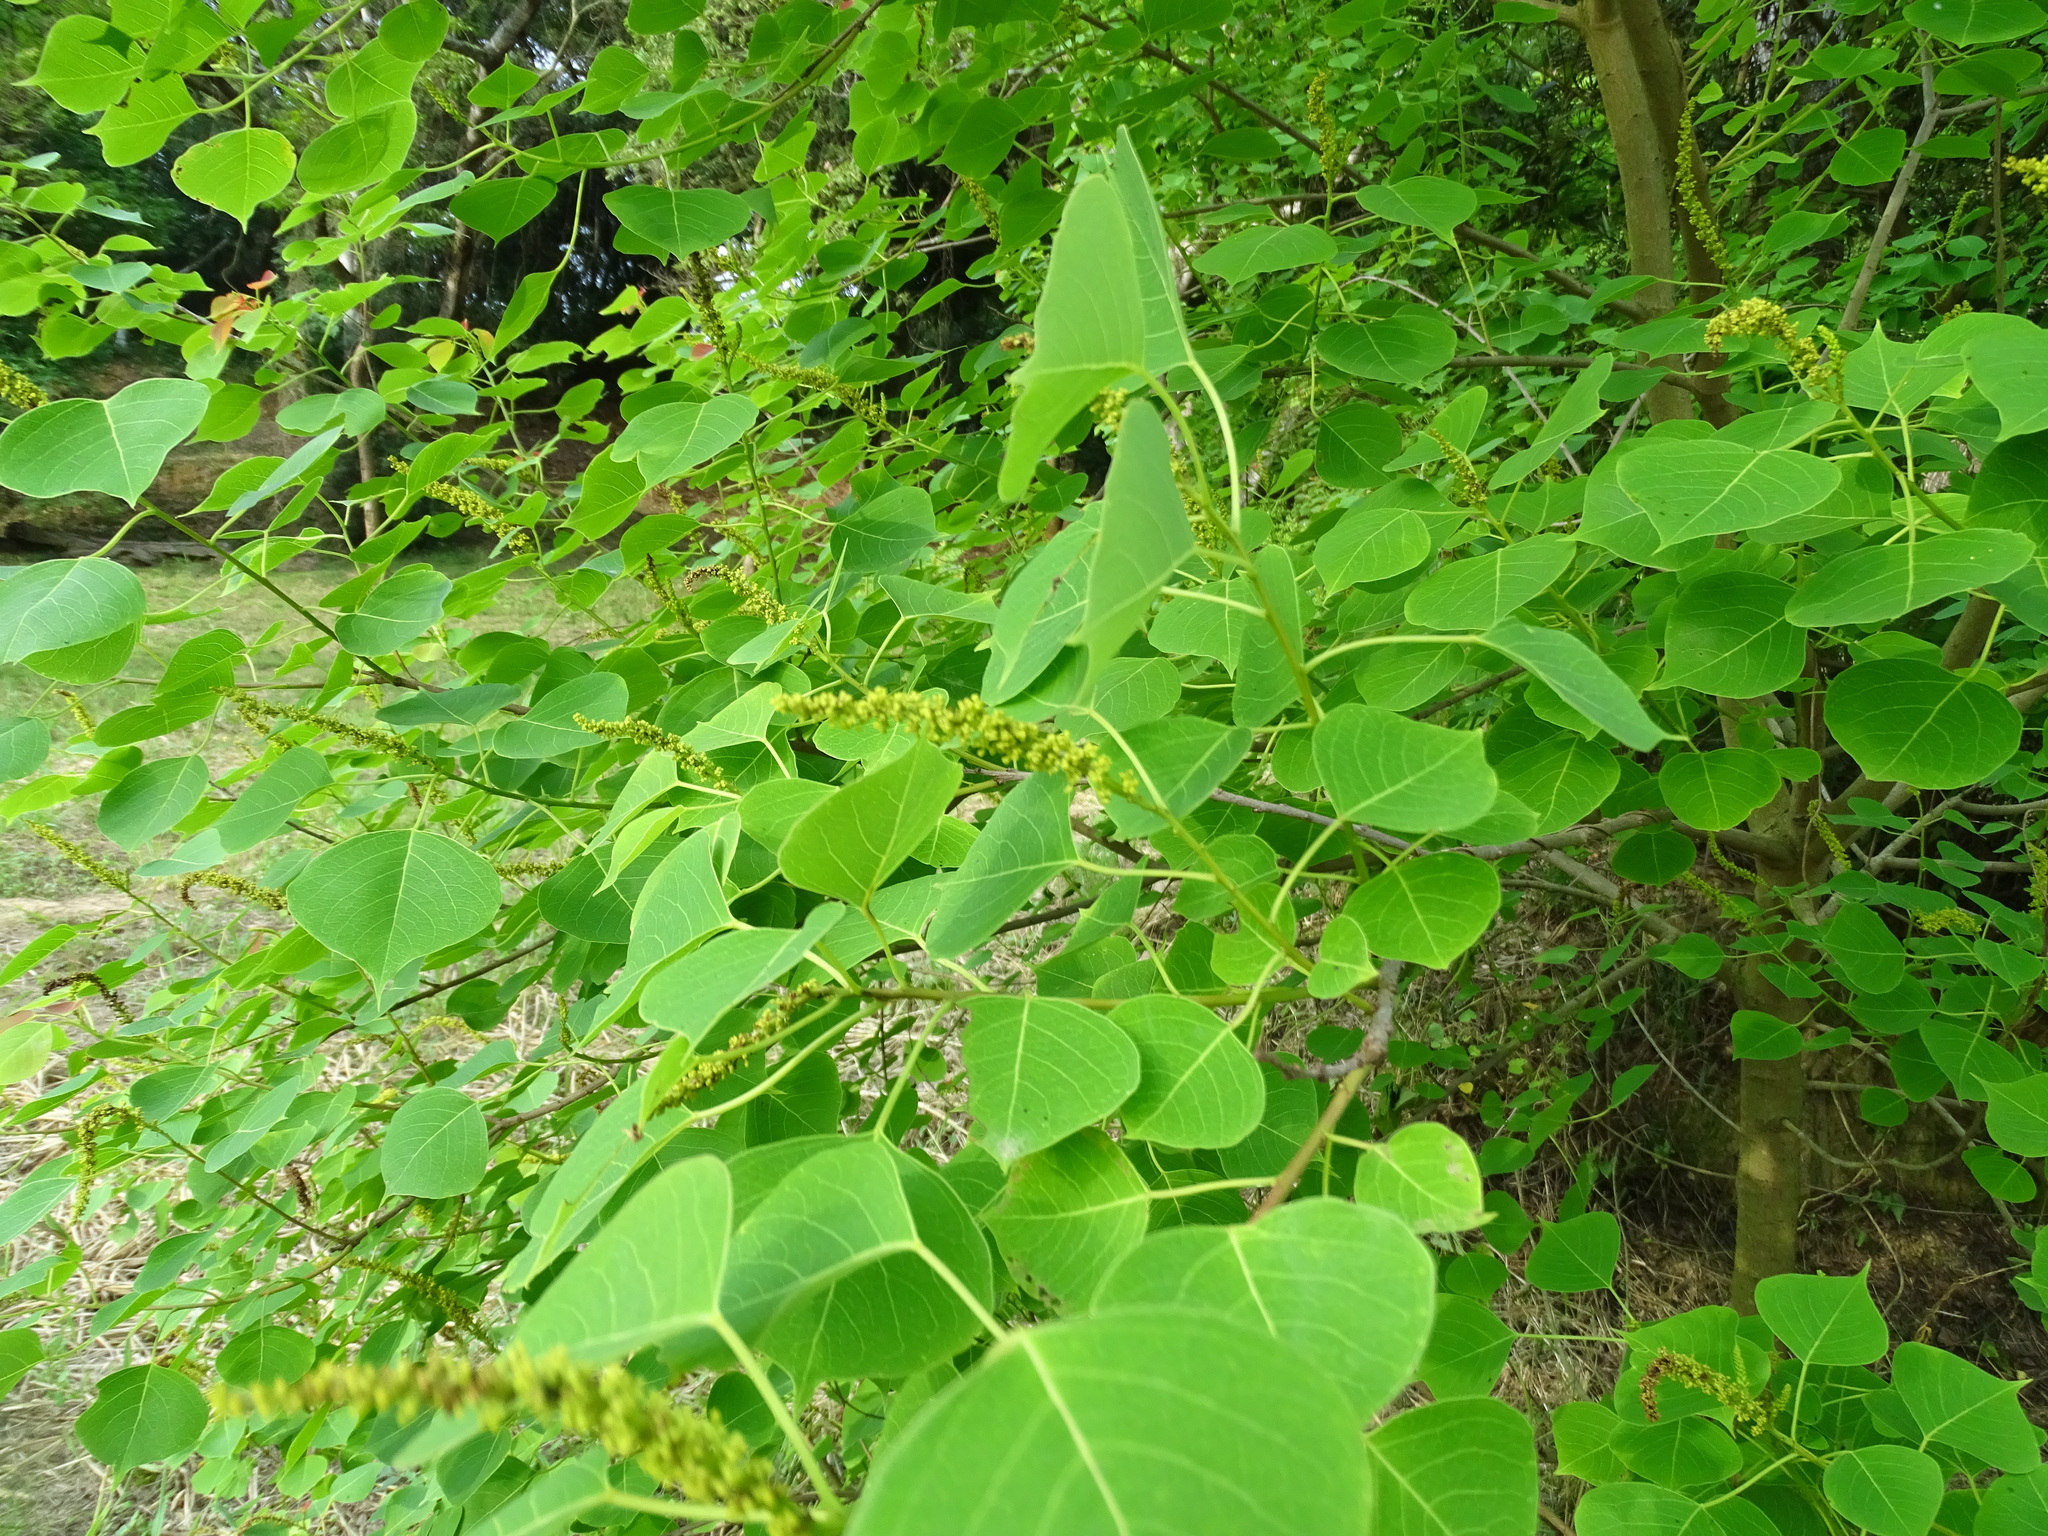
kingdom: Plantae
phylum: Tracheophyta
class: Magnoliopsida
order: Malpighiales
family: Euphorbiaceae
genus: Triadica
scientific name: Triadica sebifera
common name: Chinese tallow
